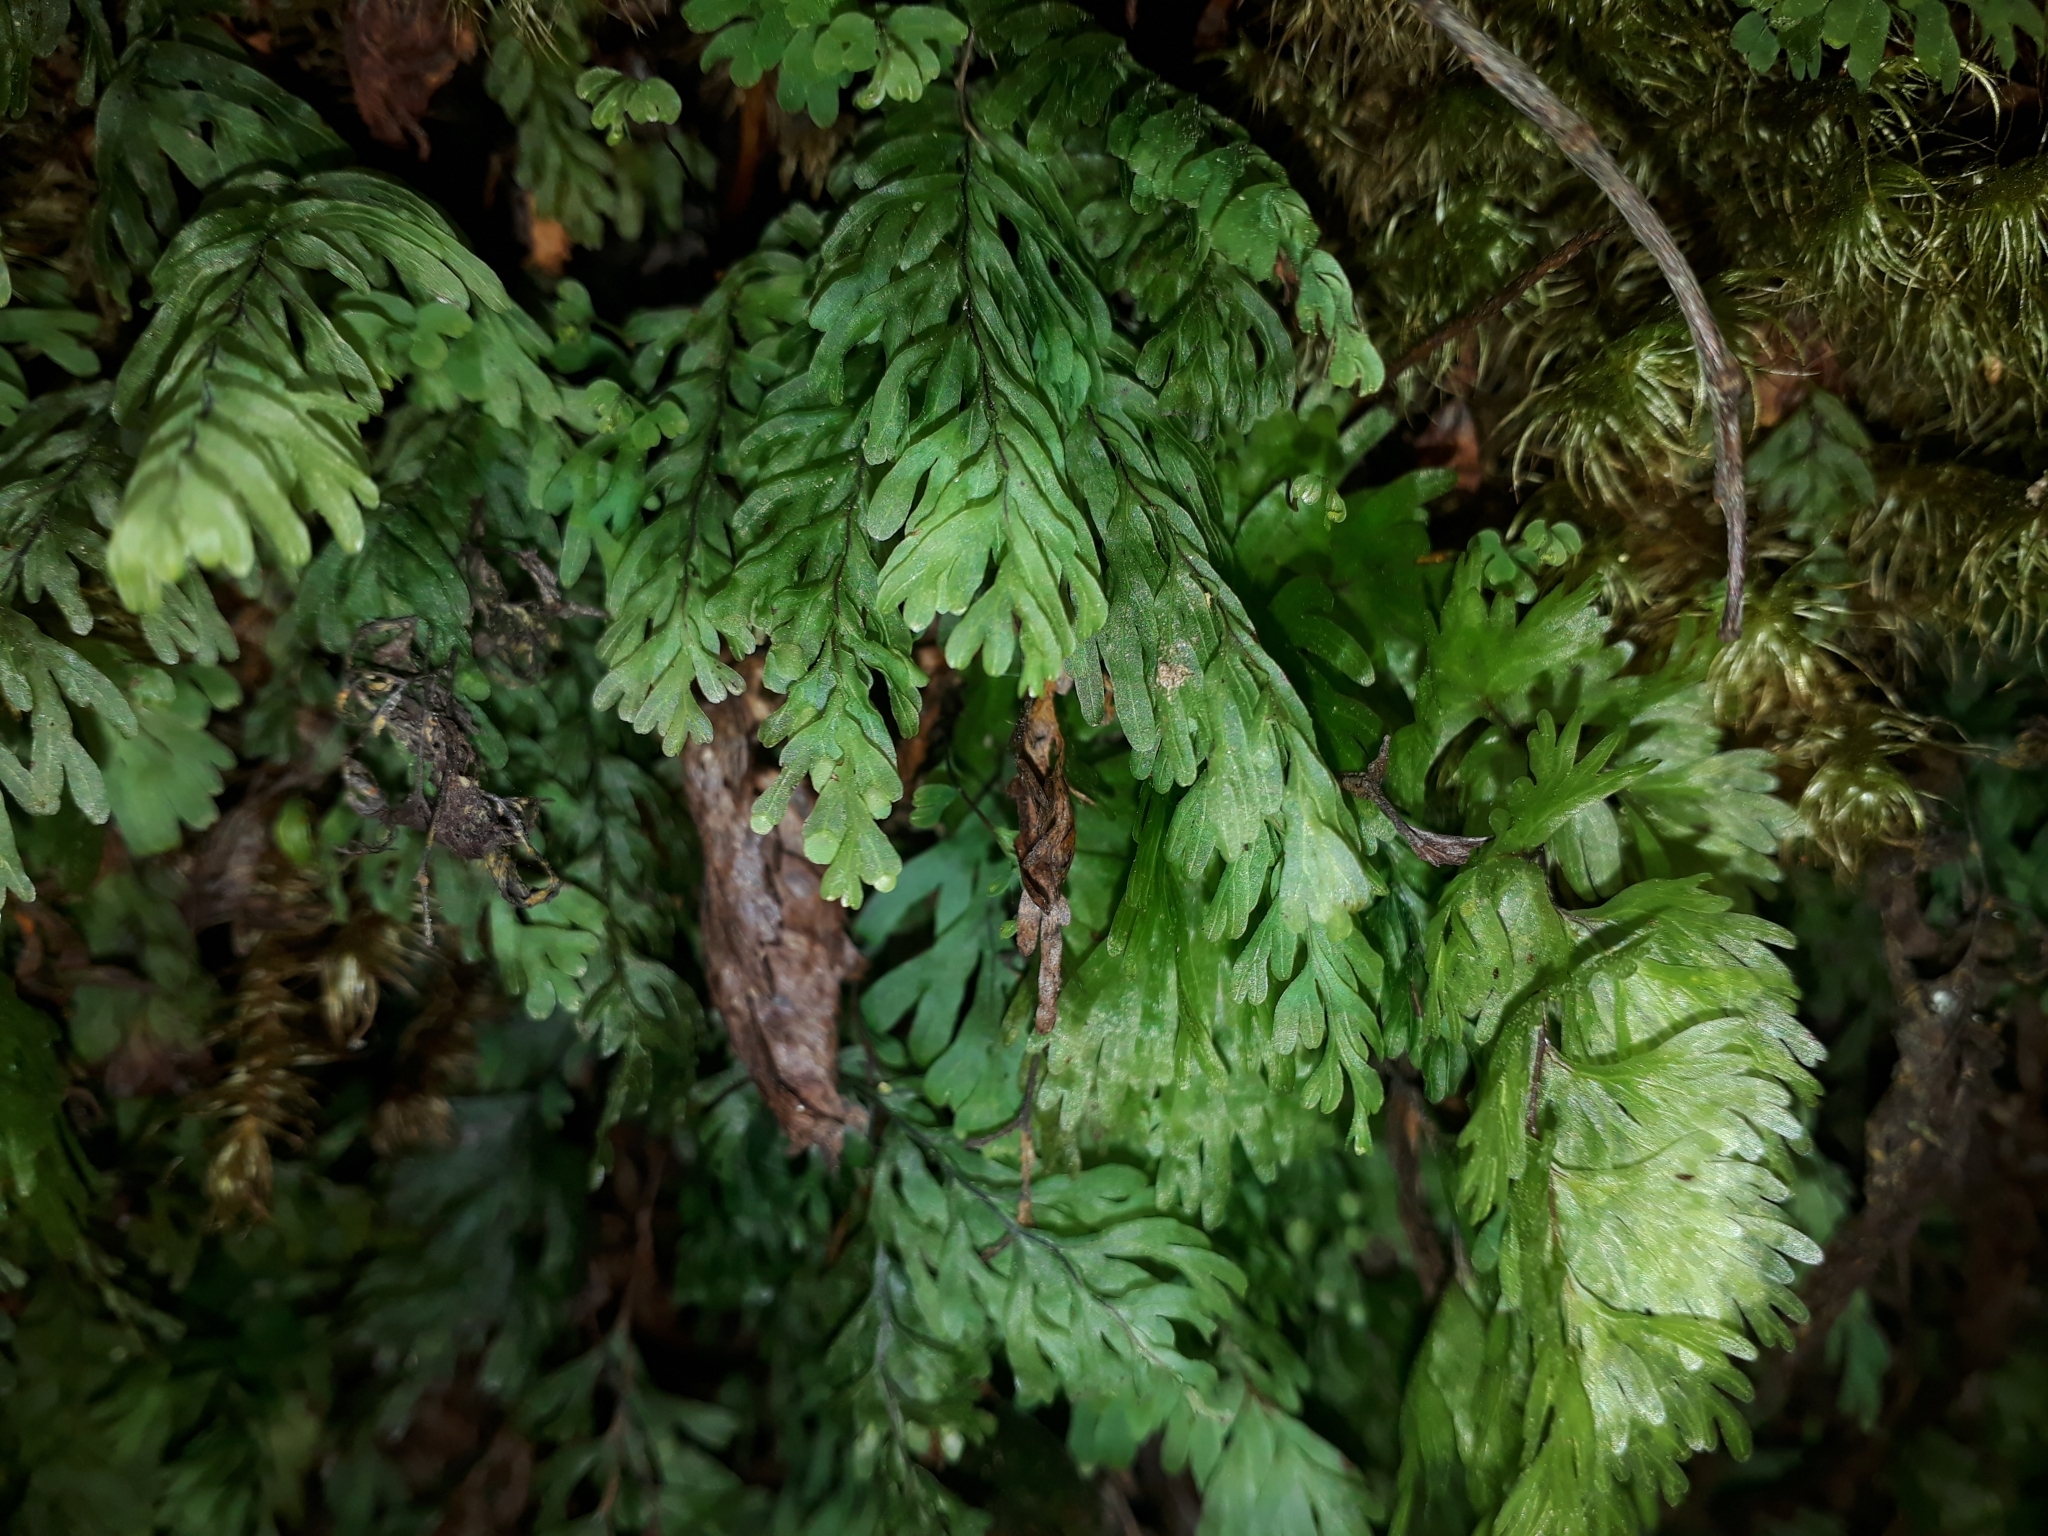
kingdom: Plantae
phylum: Tracheophyta
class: Polypodiopsida
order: Hymenophyllales
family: Hymenophyllaceae
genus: Hymenophyllum
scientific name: Hymenophyllum rarum
